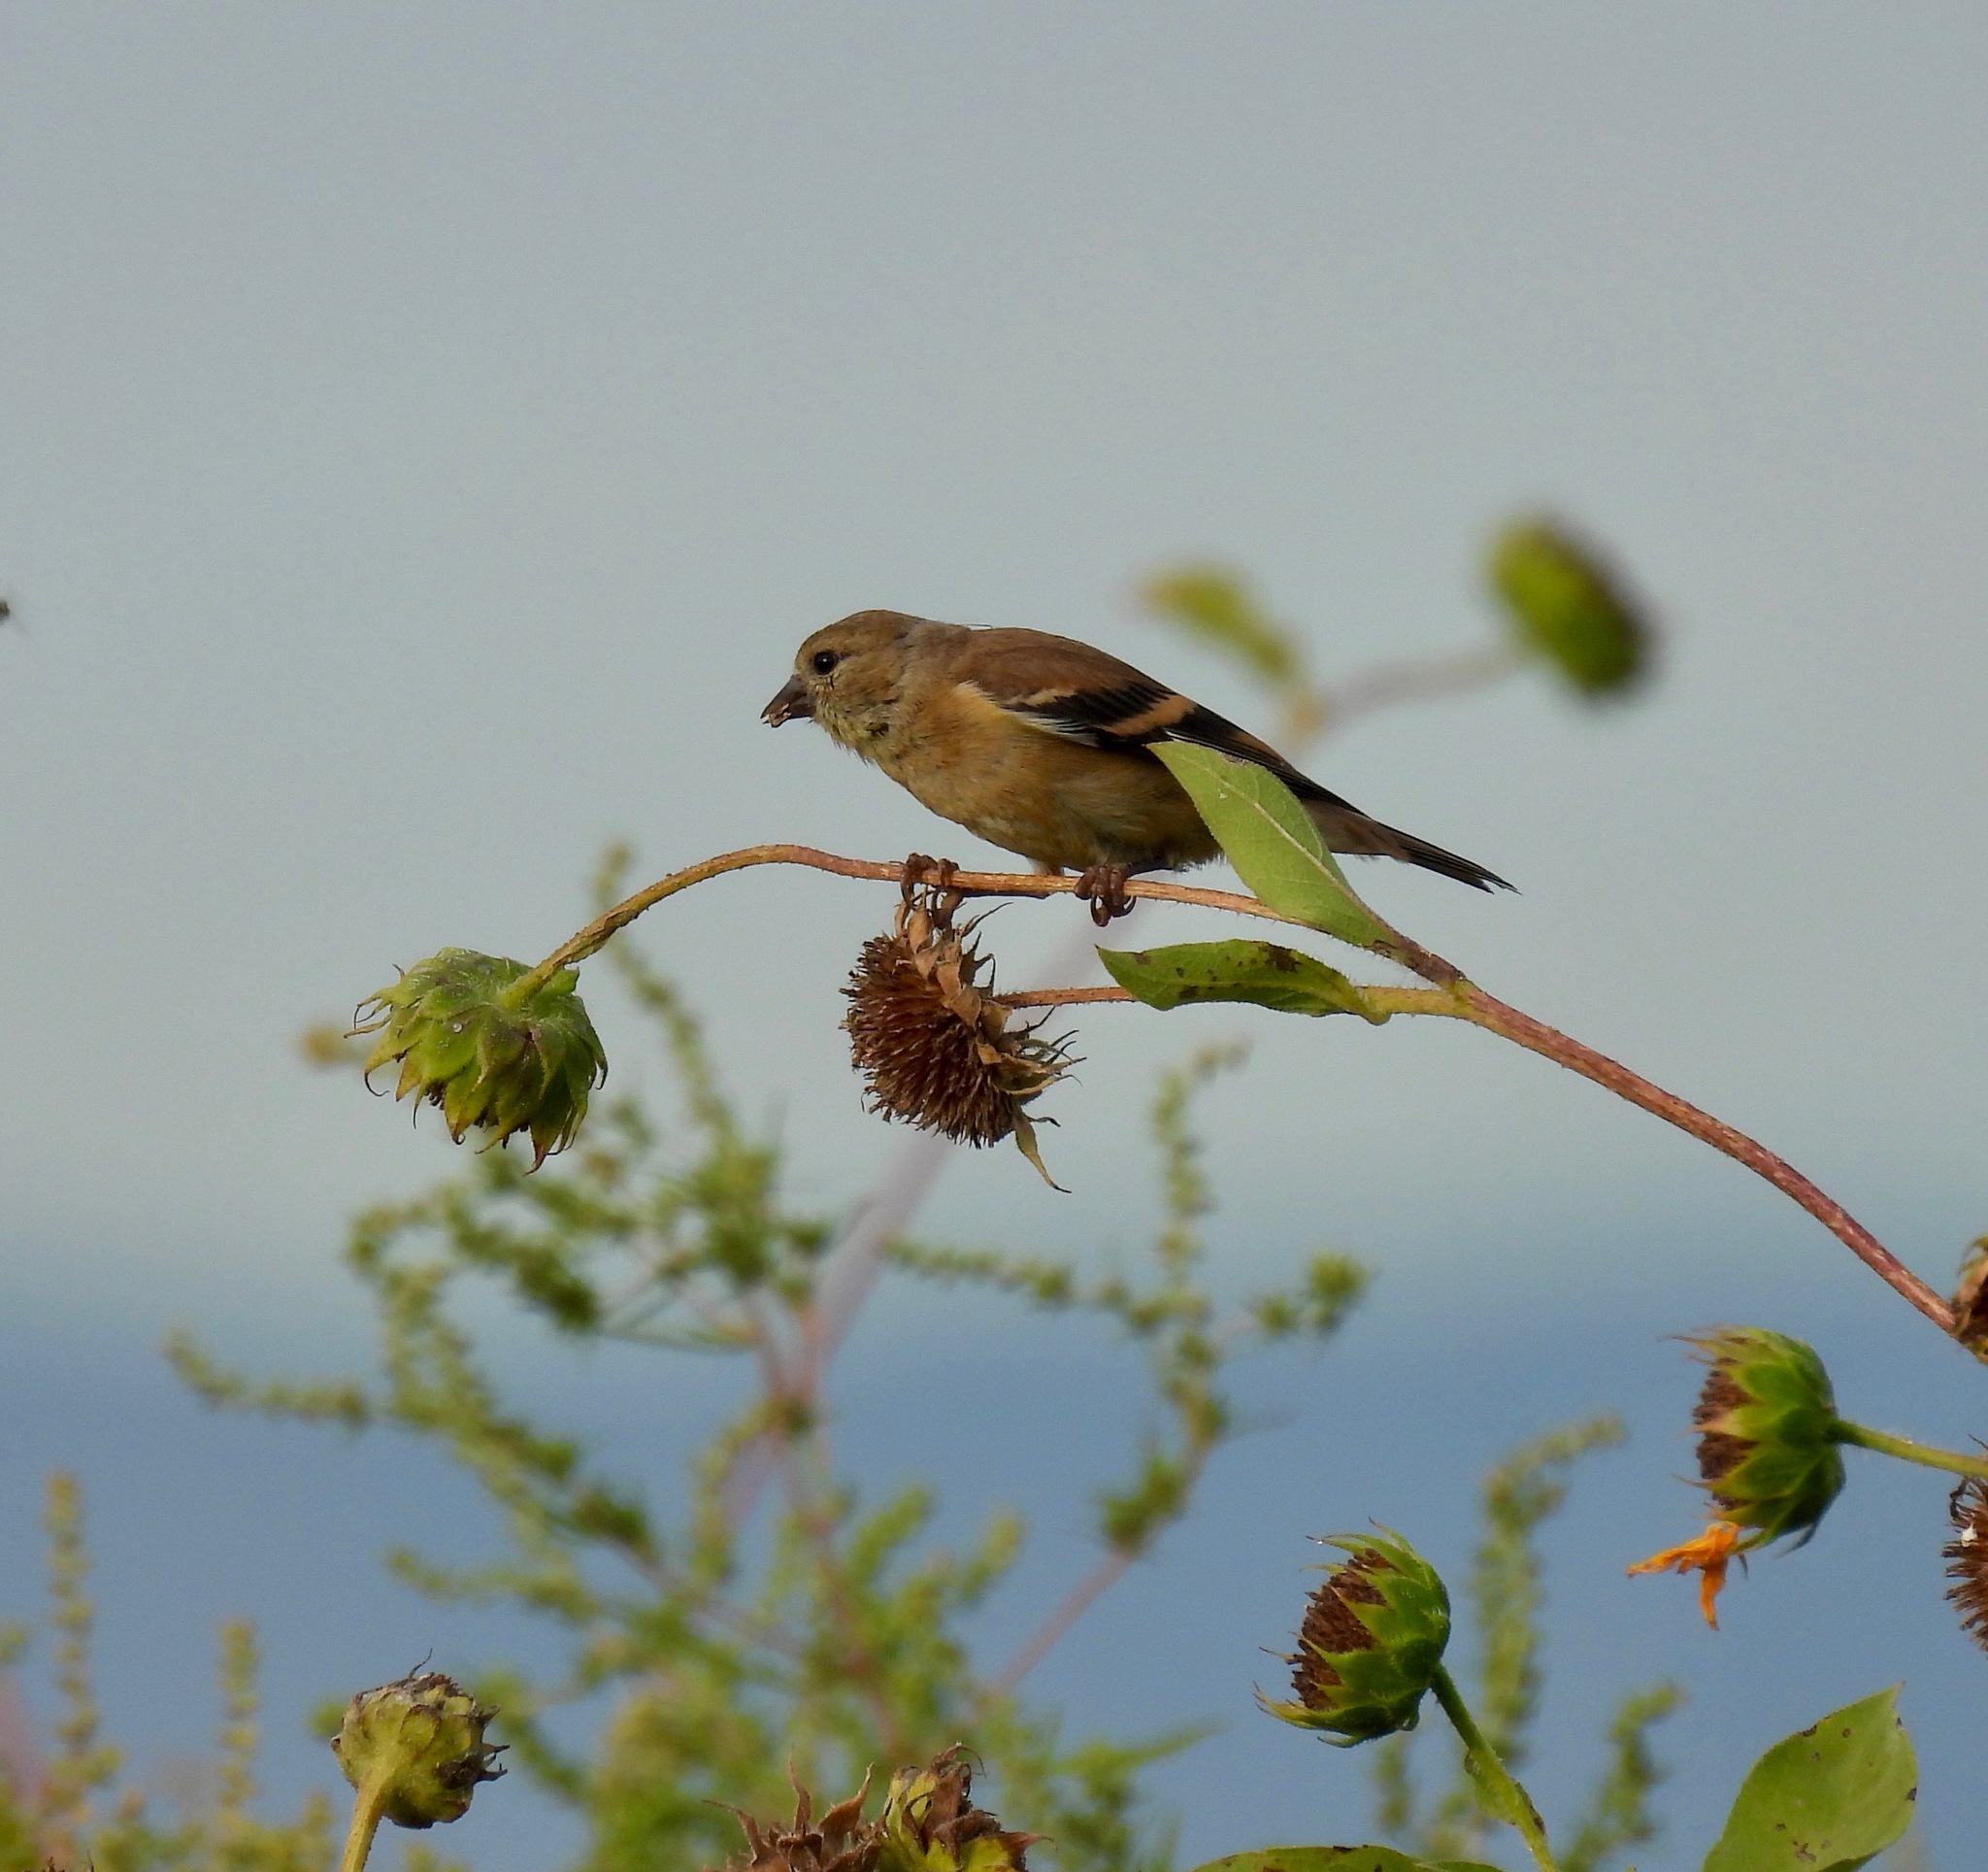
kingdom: Animalia
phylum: Chordata
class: Aves
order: Passeriformes
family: Fringillidae
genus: Spinus
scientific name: Spinus tristis
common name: American goldfinch
